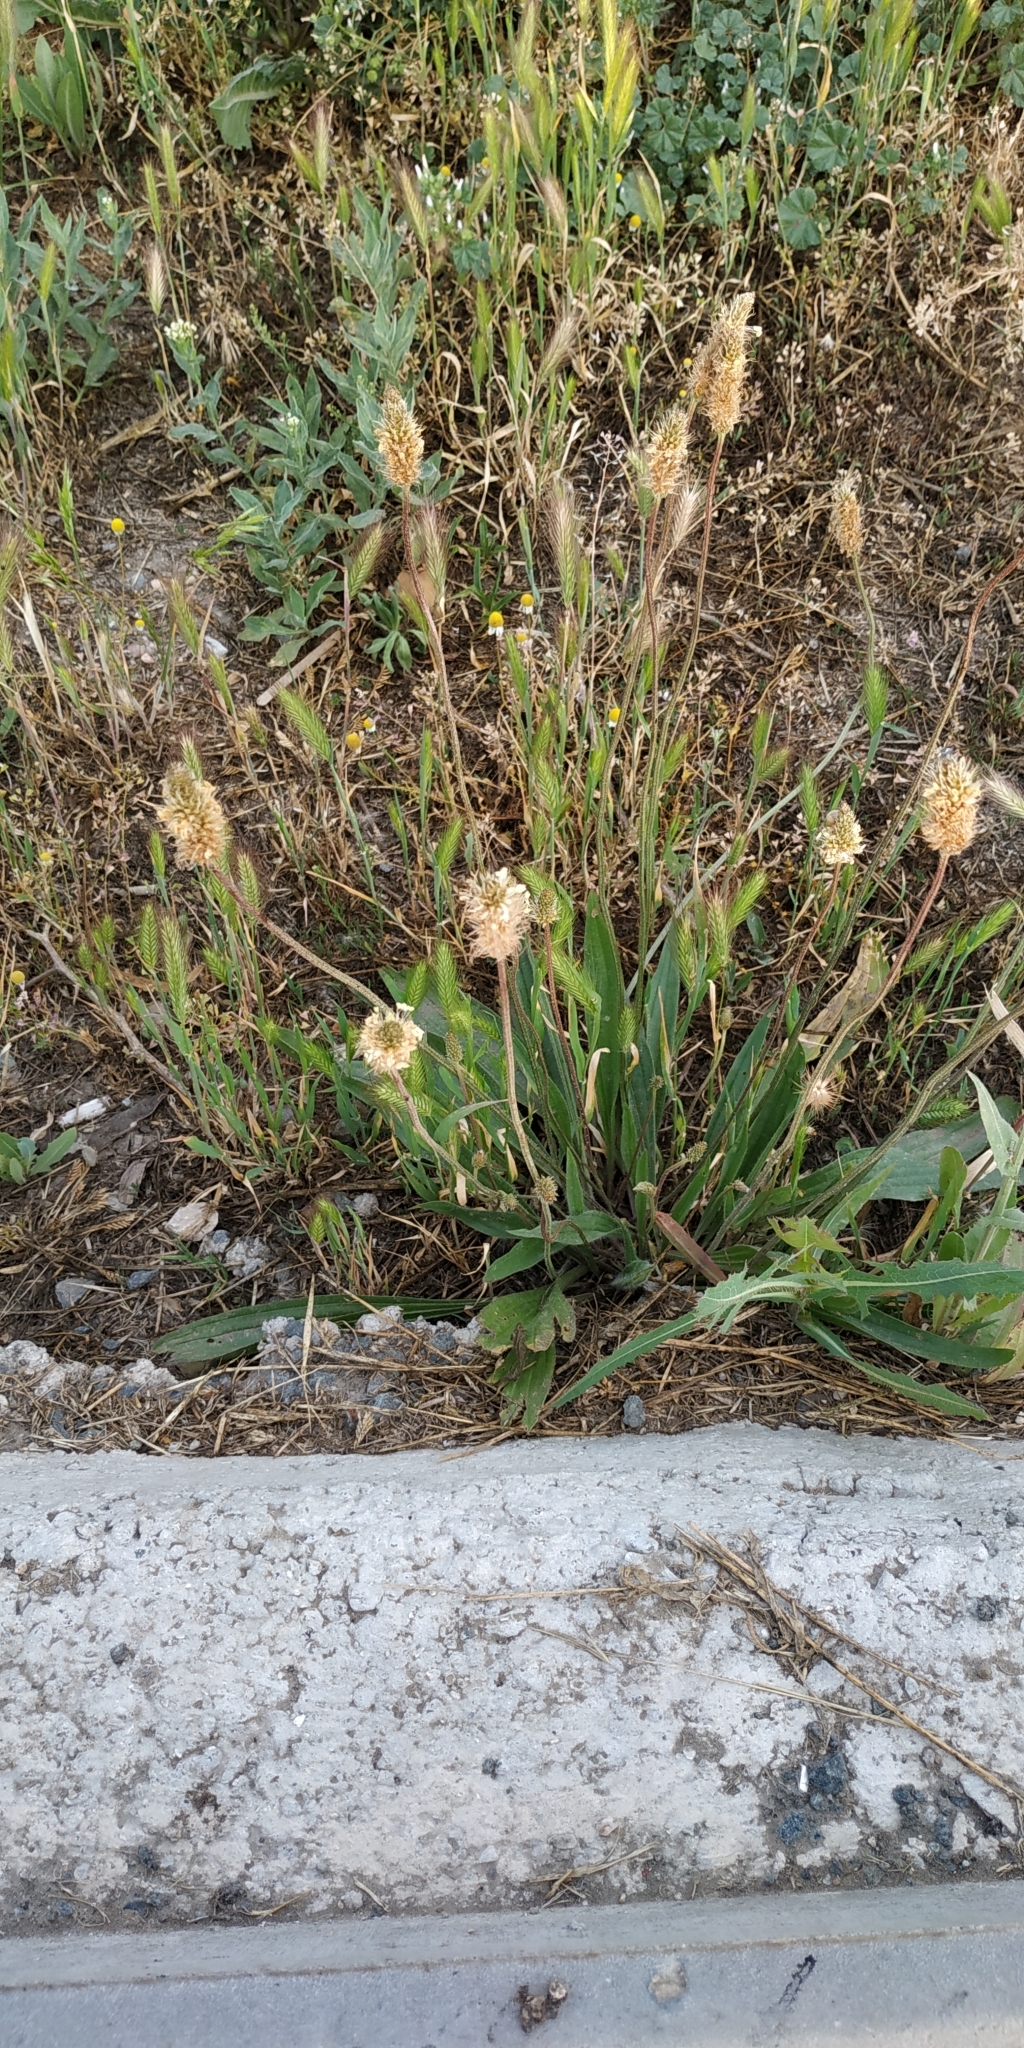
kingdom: Plantae
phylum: Tracheophyta
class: Magnoliopsida
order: Lamiales
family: Plantaginaceae
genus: Plantago
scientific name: Plantago lanceolata
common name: Ribwort plantain
